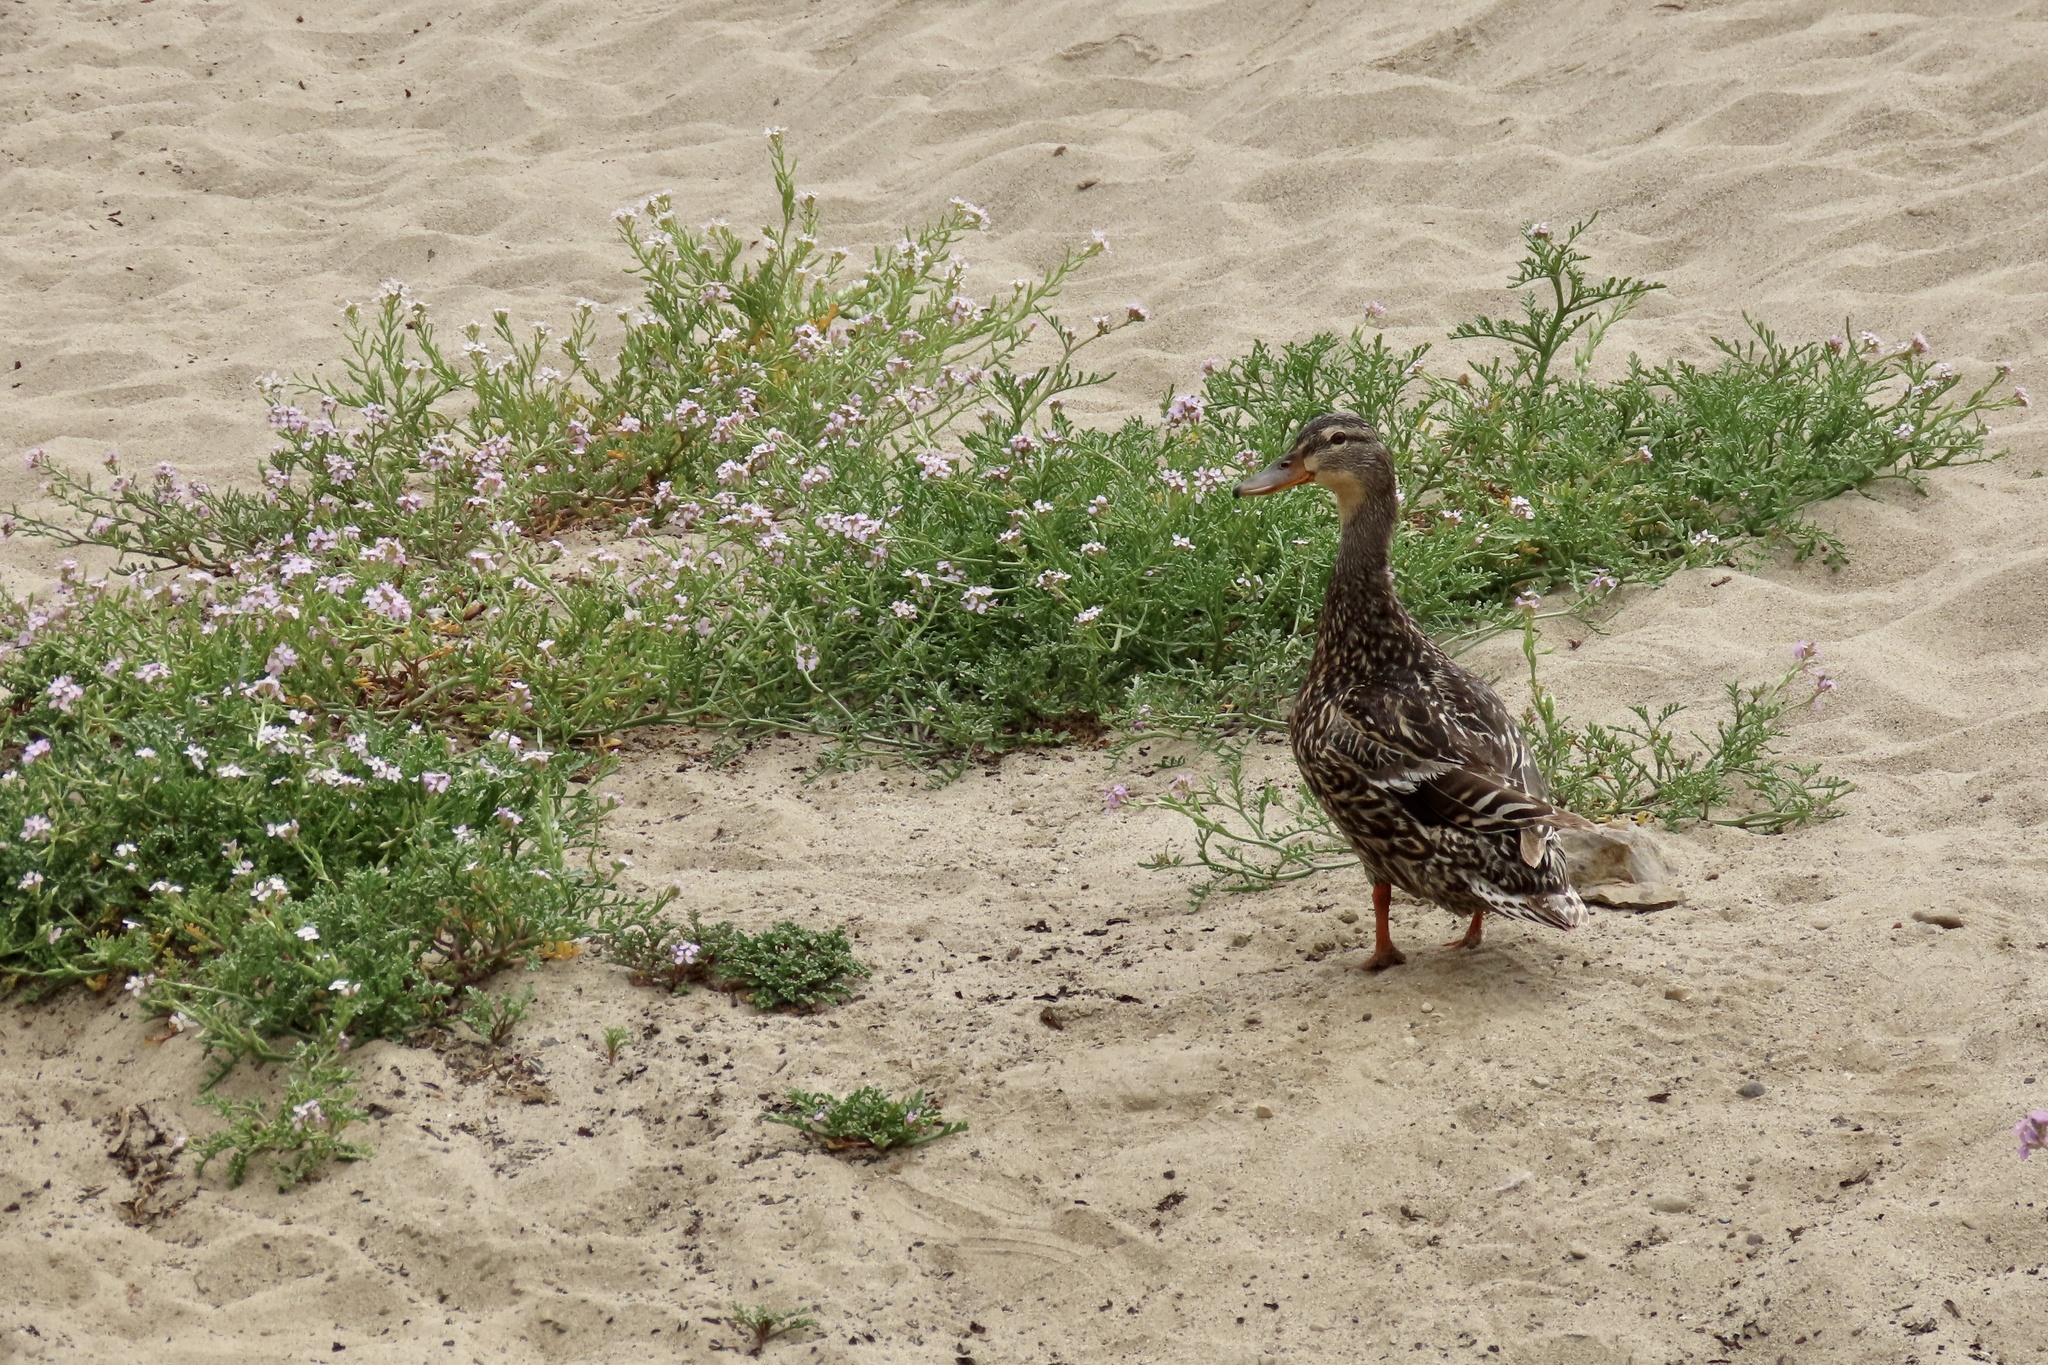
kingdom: Animalia
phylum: Chordata
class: Aves
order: Anseriformes
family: Anatidae
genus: Anas
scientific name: Anas platyrhynchos
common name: Mallard
